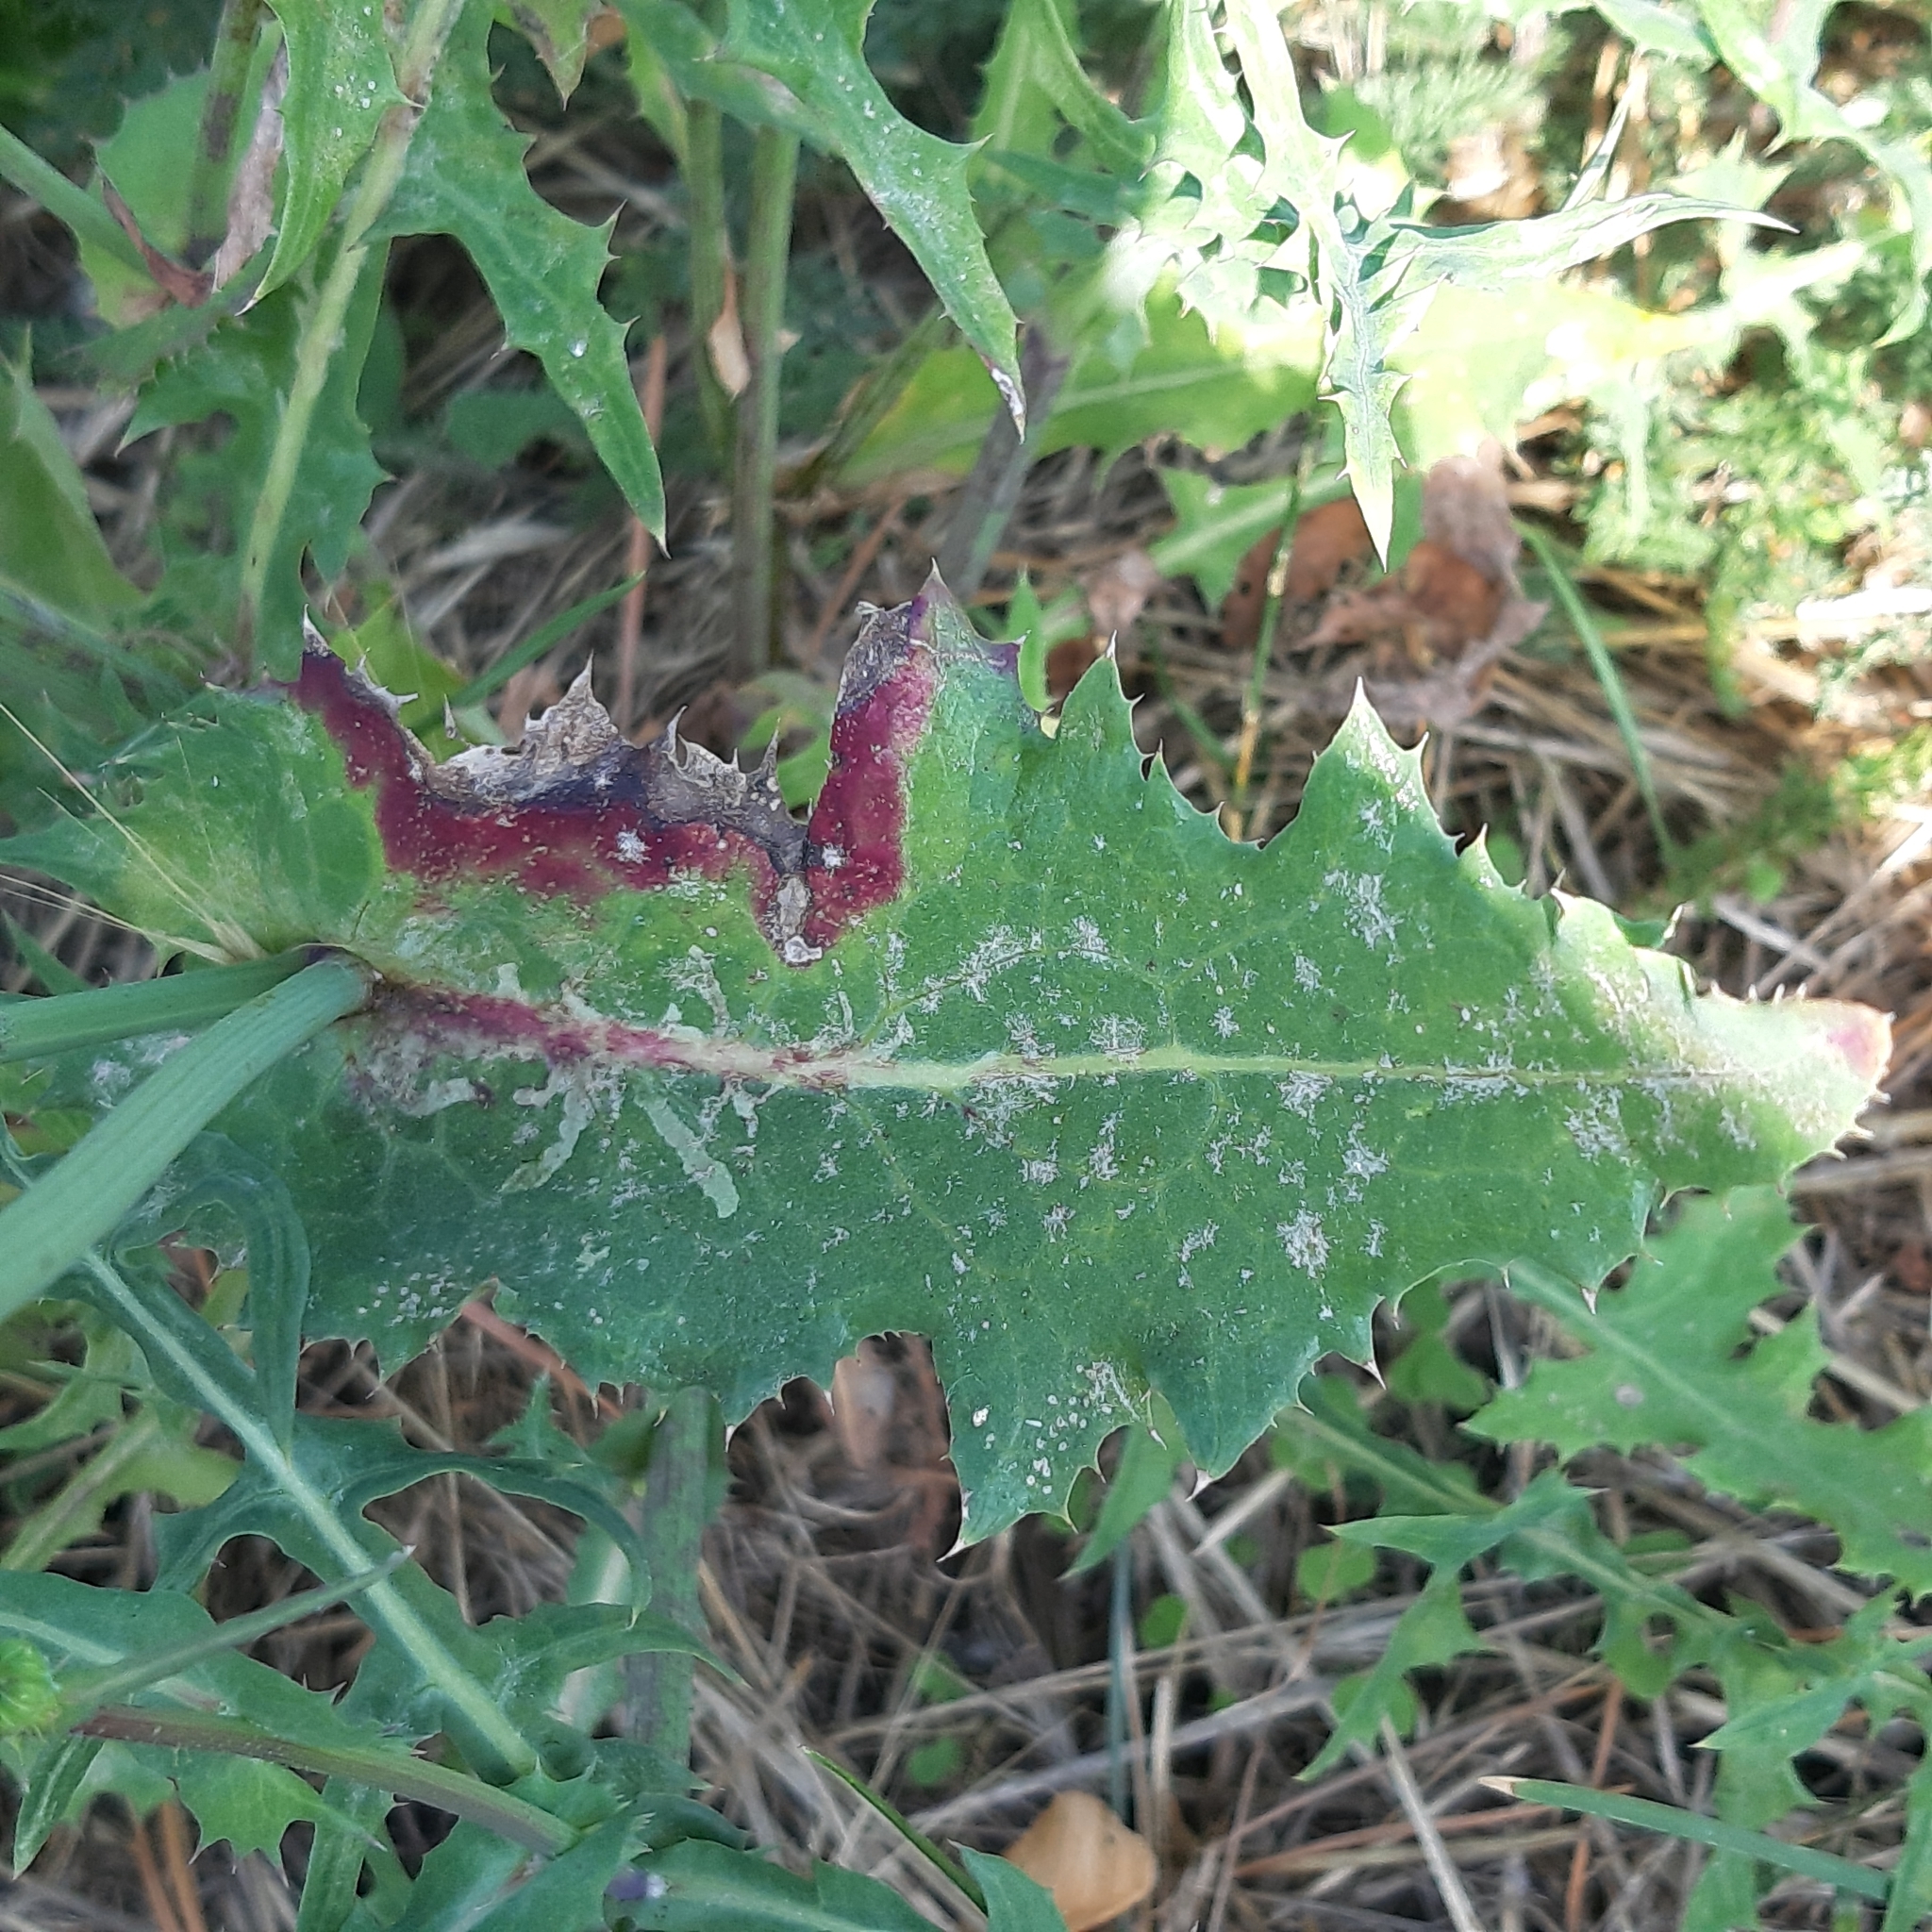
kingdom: Plantae
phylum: Tracheophyta
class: Magnoliopsida
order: Asterales
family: Asteraceae
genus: Sonchus
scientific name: Sonchus oleraceus
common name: Common sowthistle
